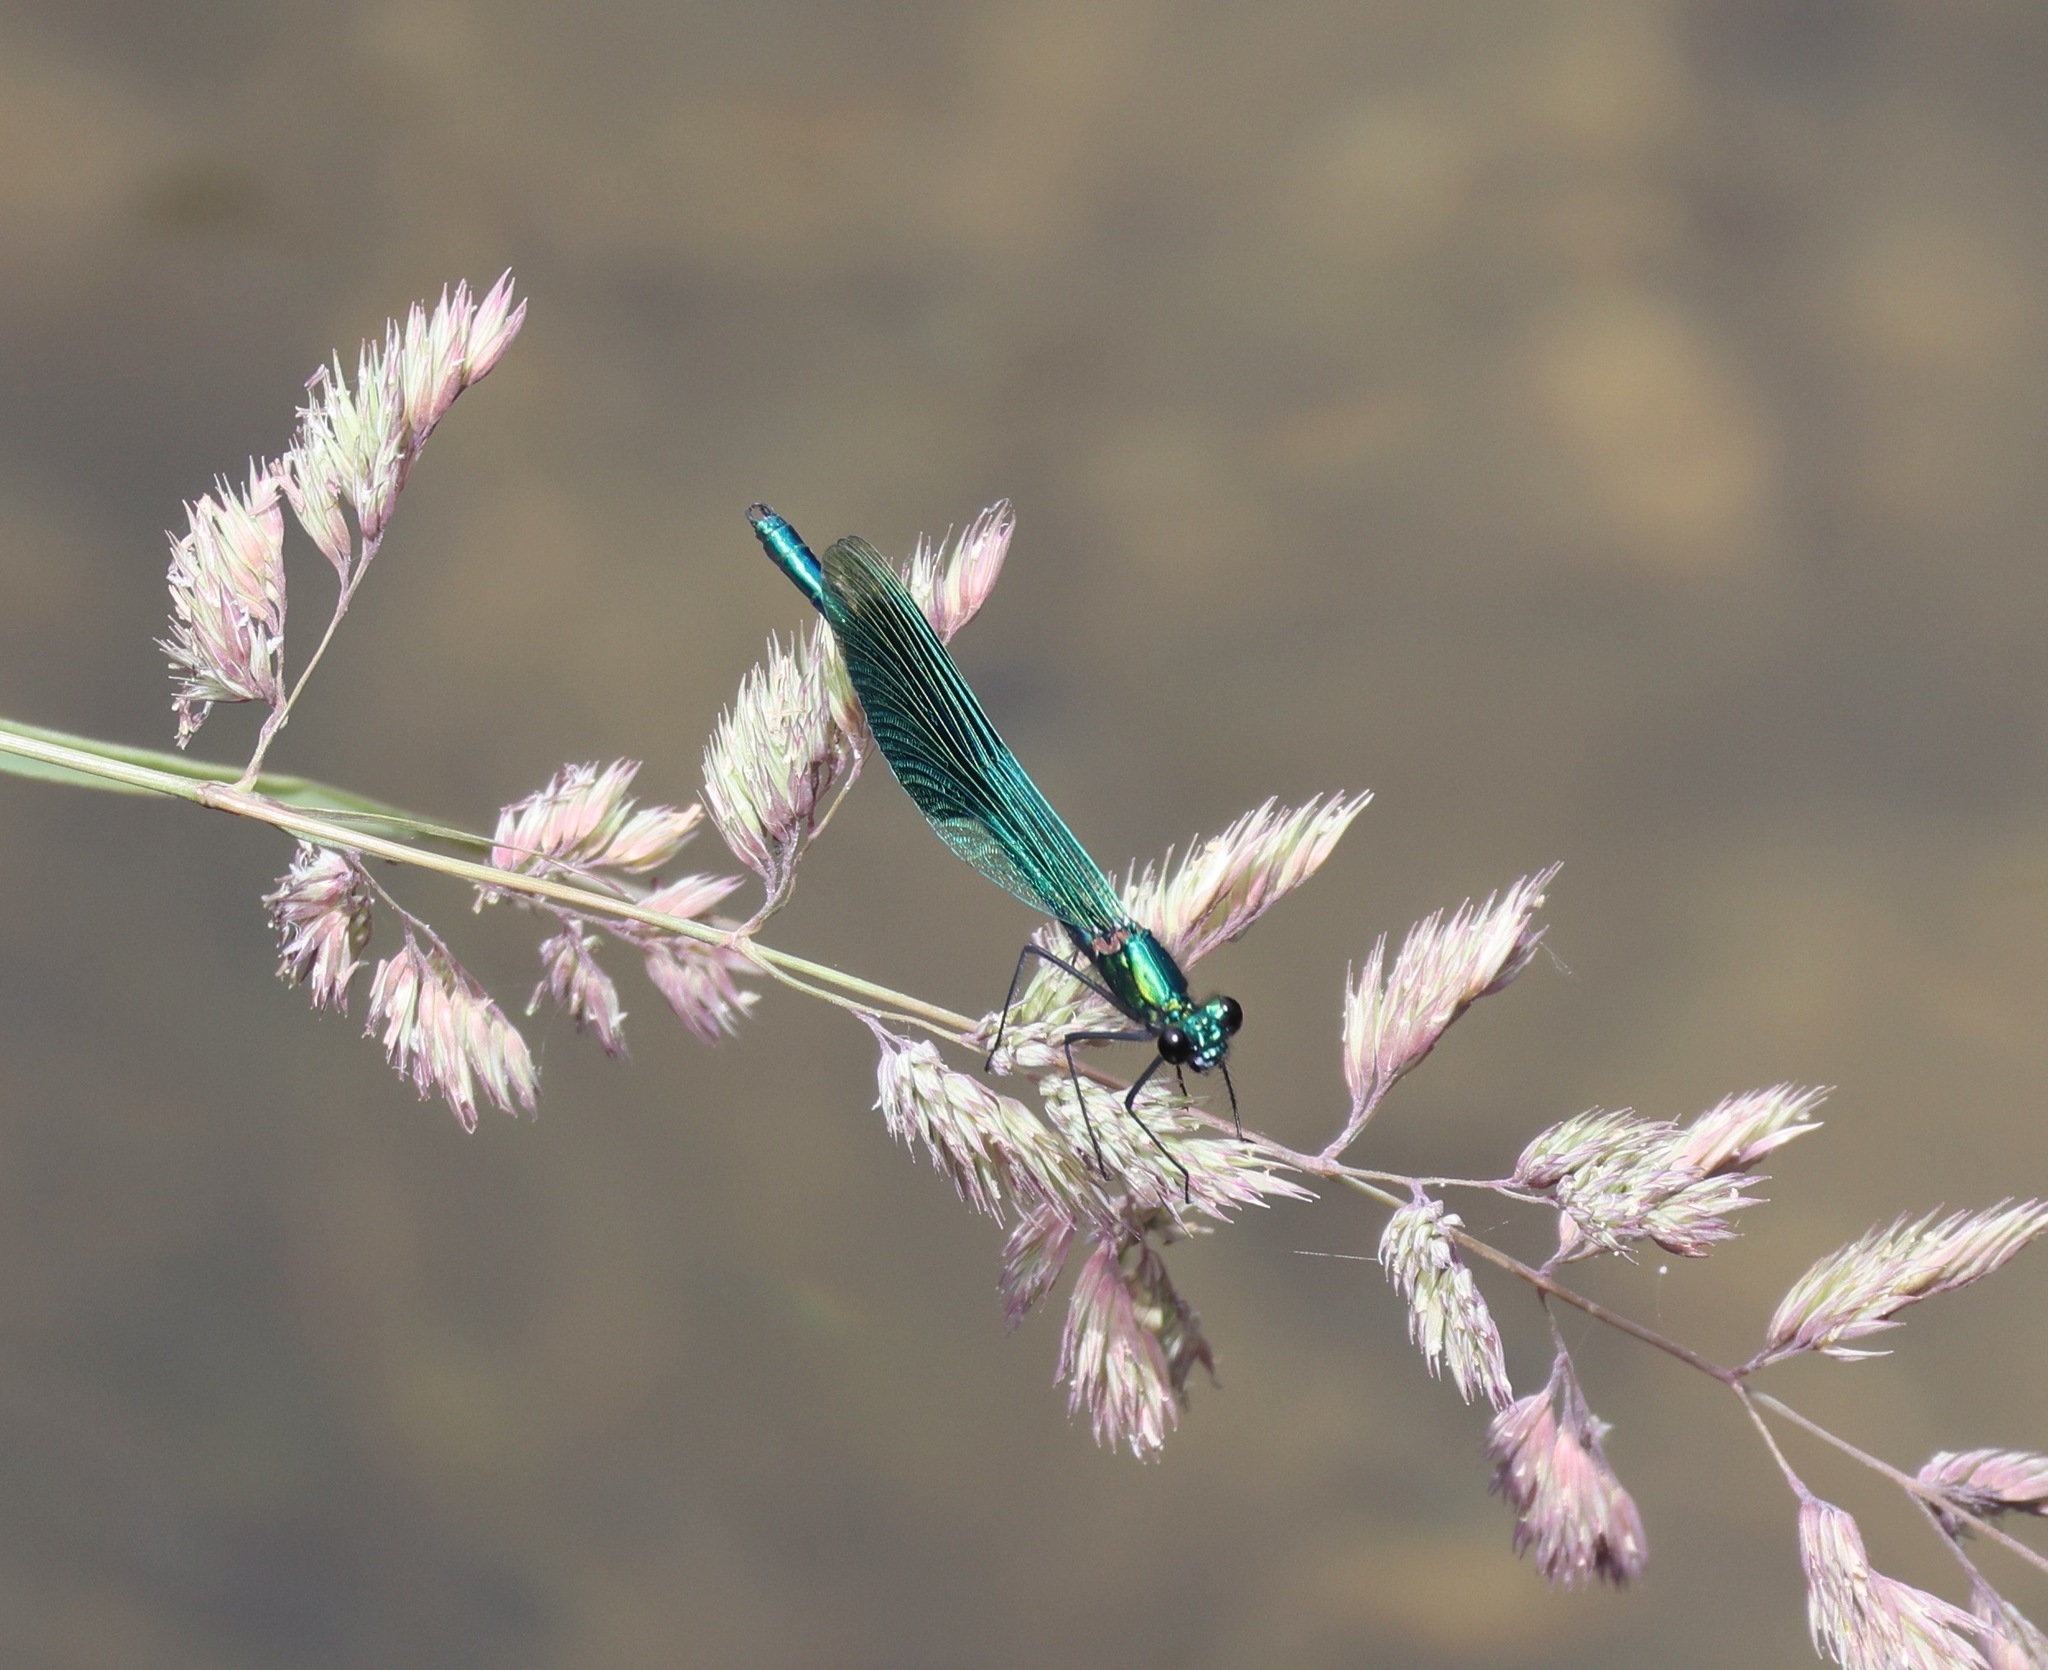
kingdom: Animalia
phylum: Arthropoda
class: Insecta
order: Odonata
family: Calopterygidae
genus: Calopteryx
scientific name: Calopteryx splendens
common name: Banded demoiselle
